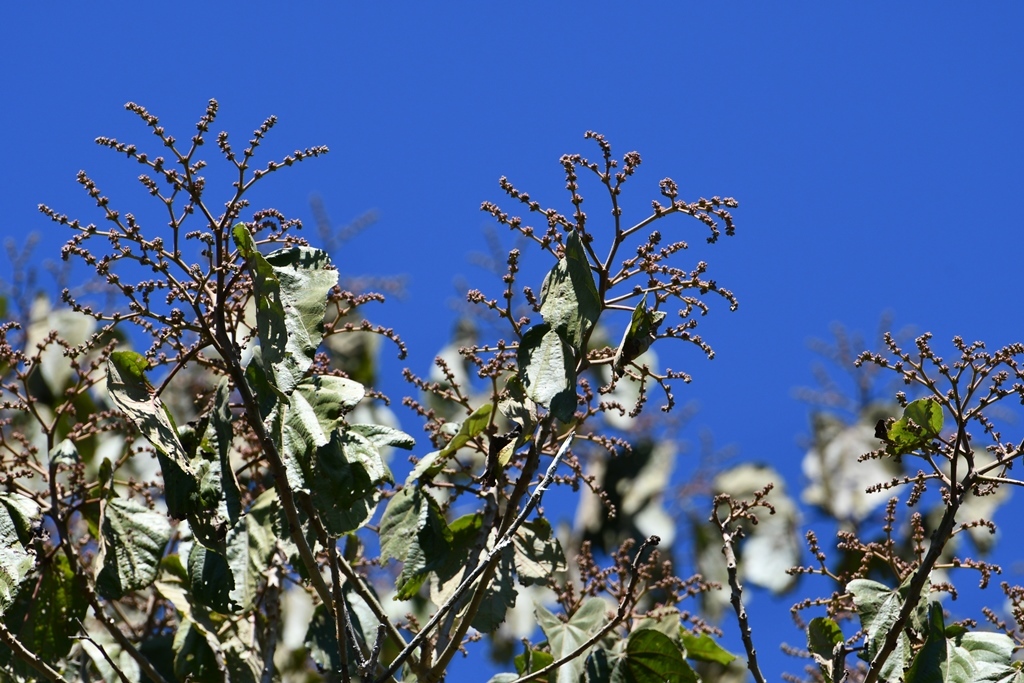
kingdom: Plantae
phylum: Tracheophyta
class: Magnoliopsida
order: Malvales
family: Malvaceae
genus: Heliocarpus
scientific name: Heliocarpus americanus
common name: White moho
